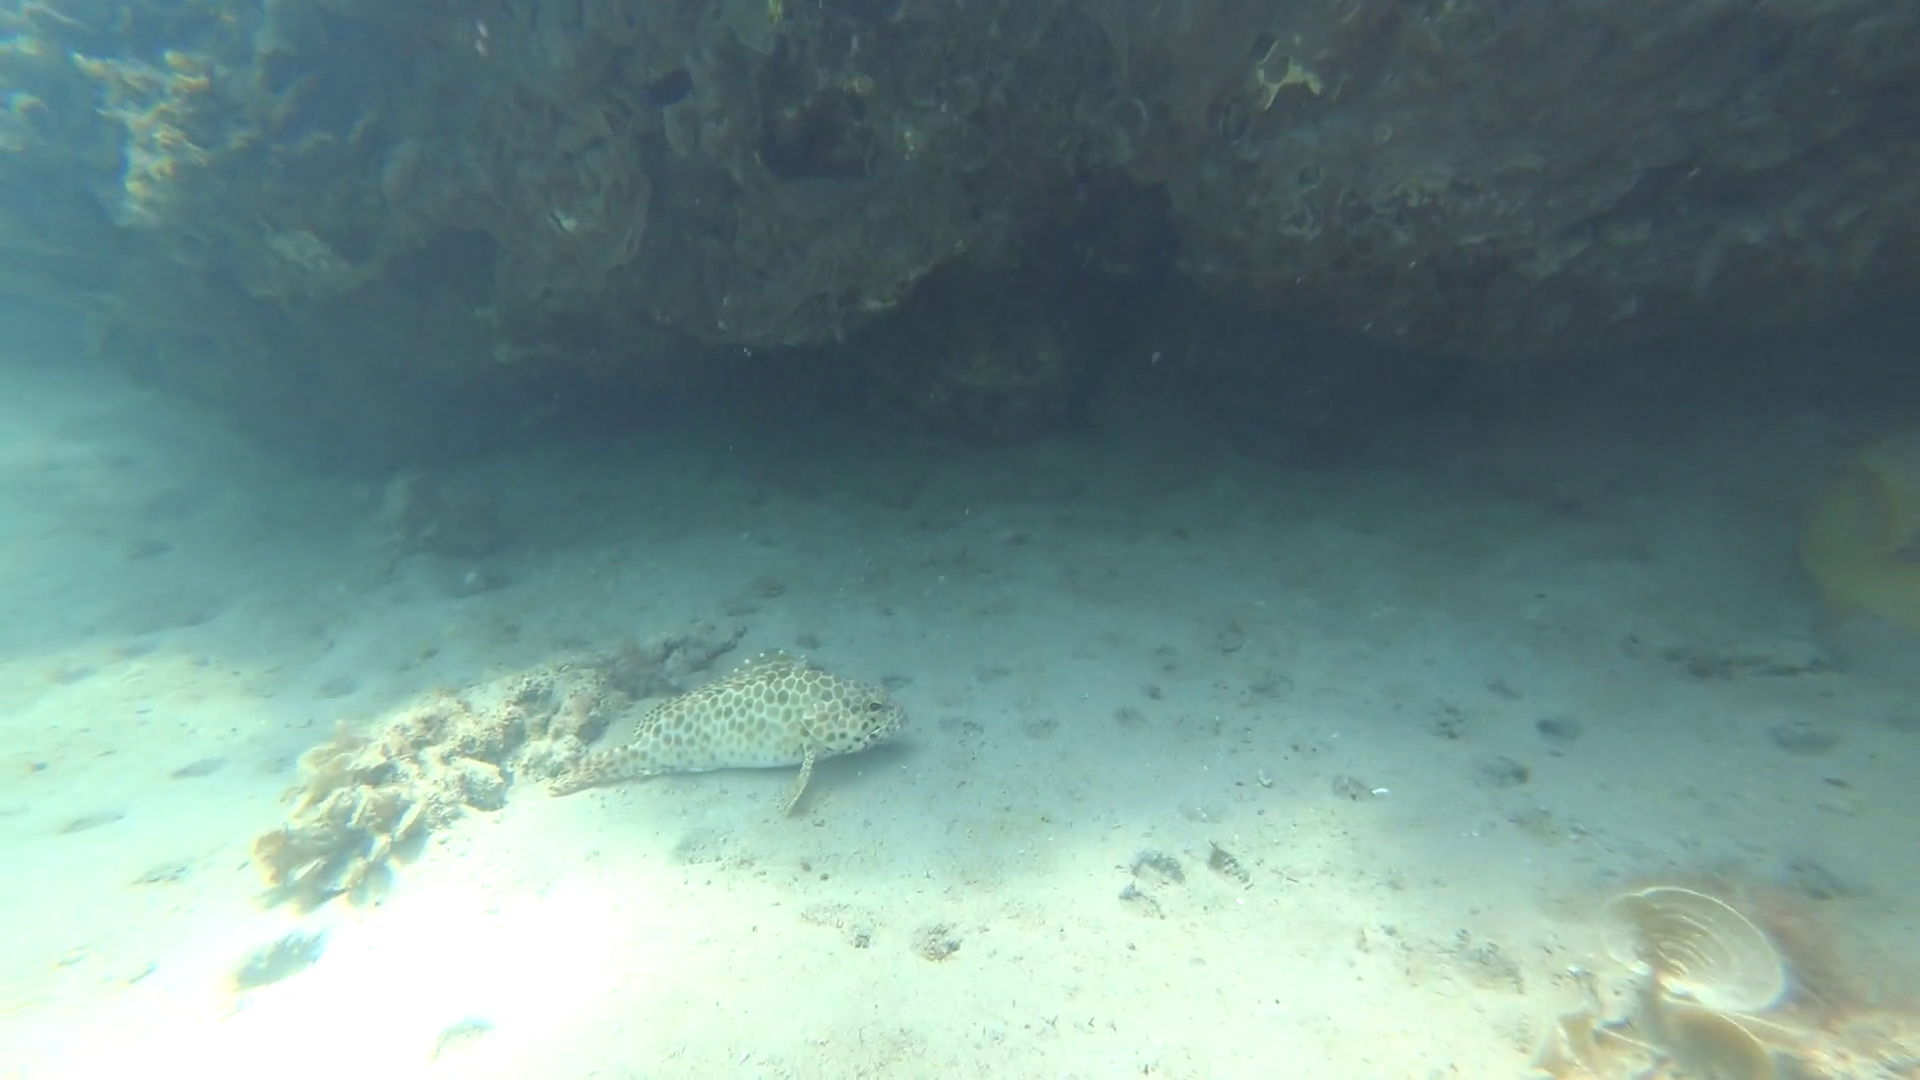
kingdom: Animalia
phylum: Chordata
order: Perciformes
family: Serranidae
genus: Epinephelus
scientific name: Epinephelus quoyanus
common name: Longfin grouper
